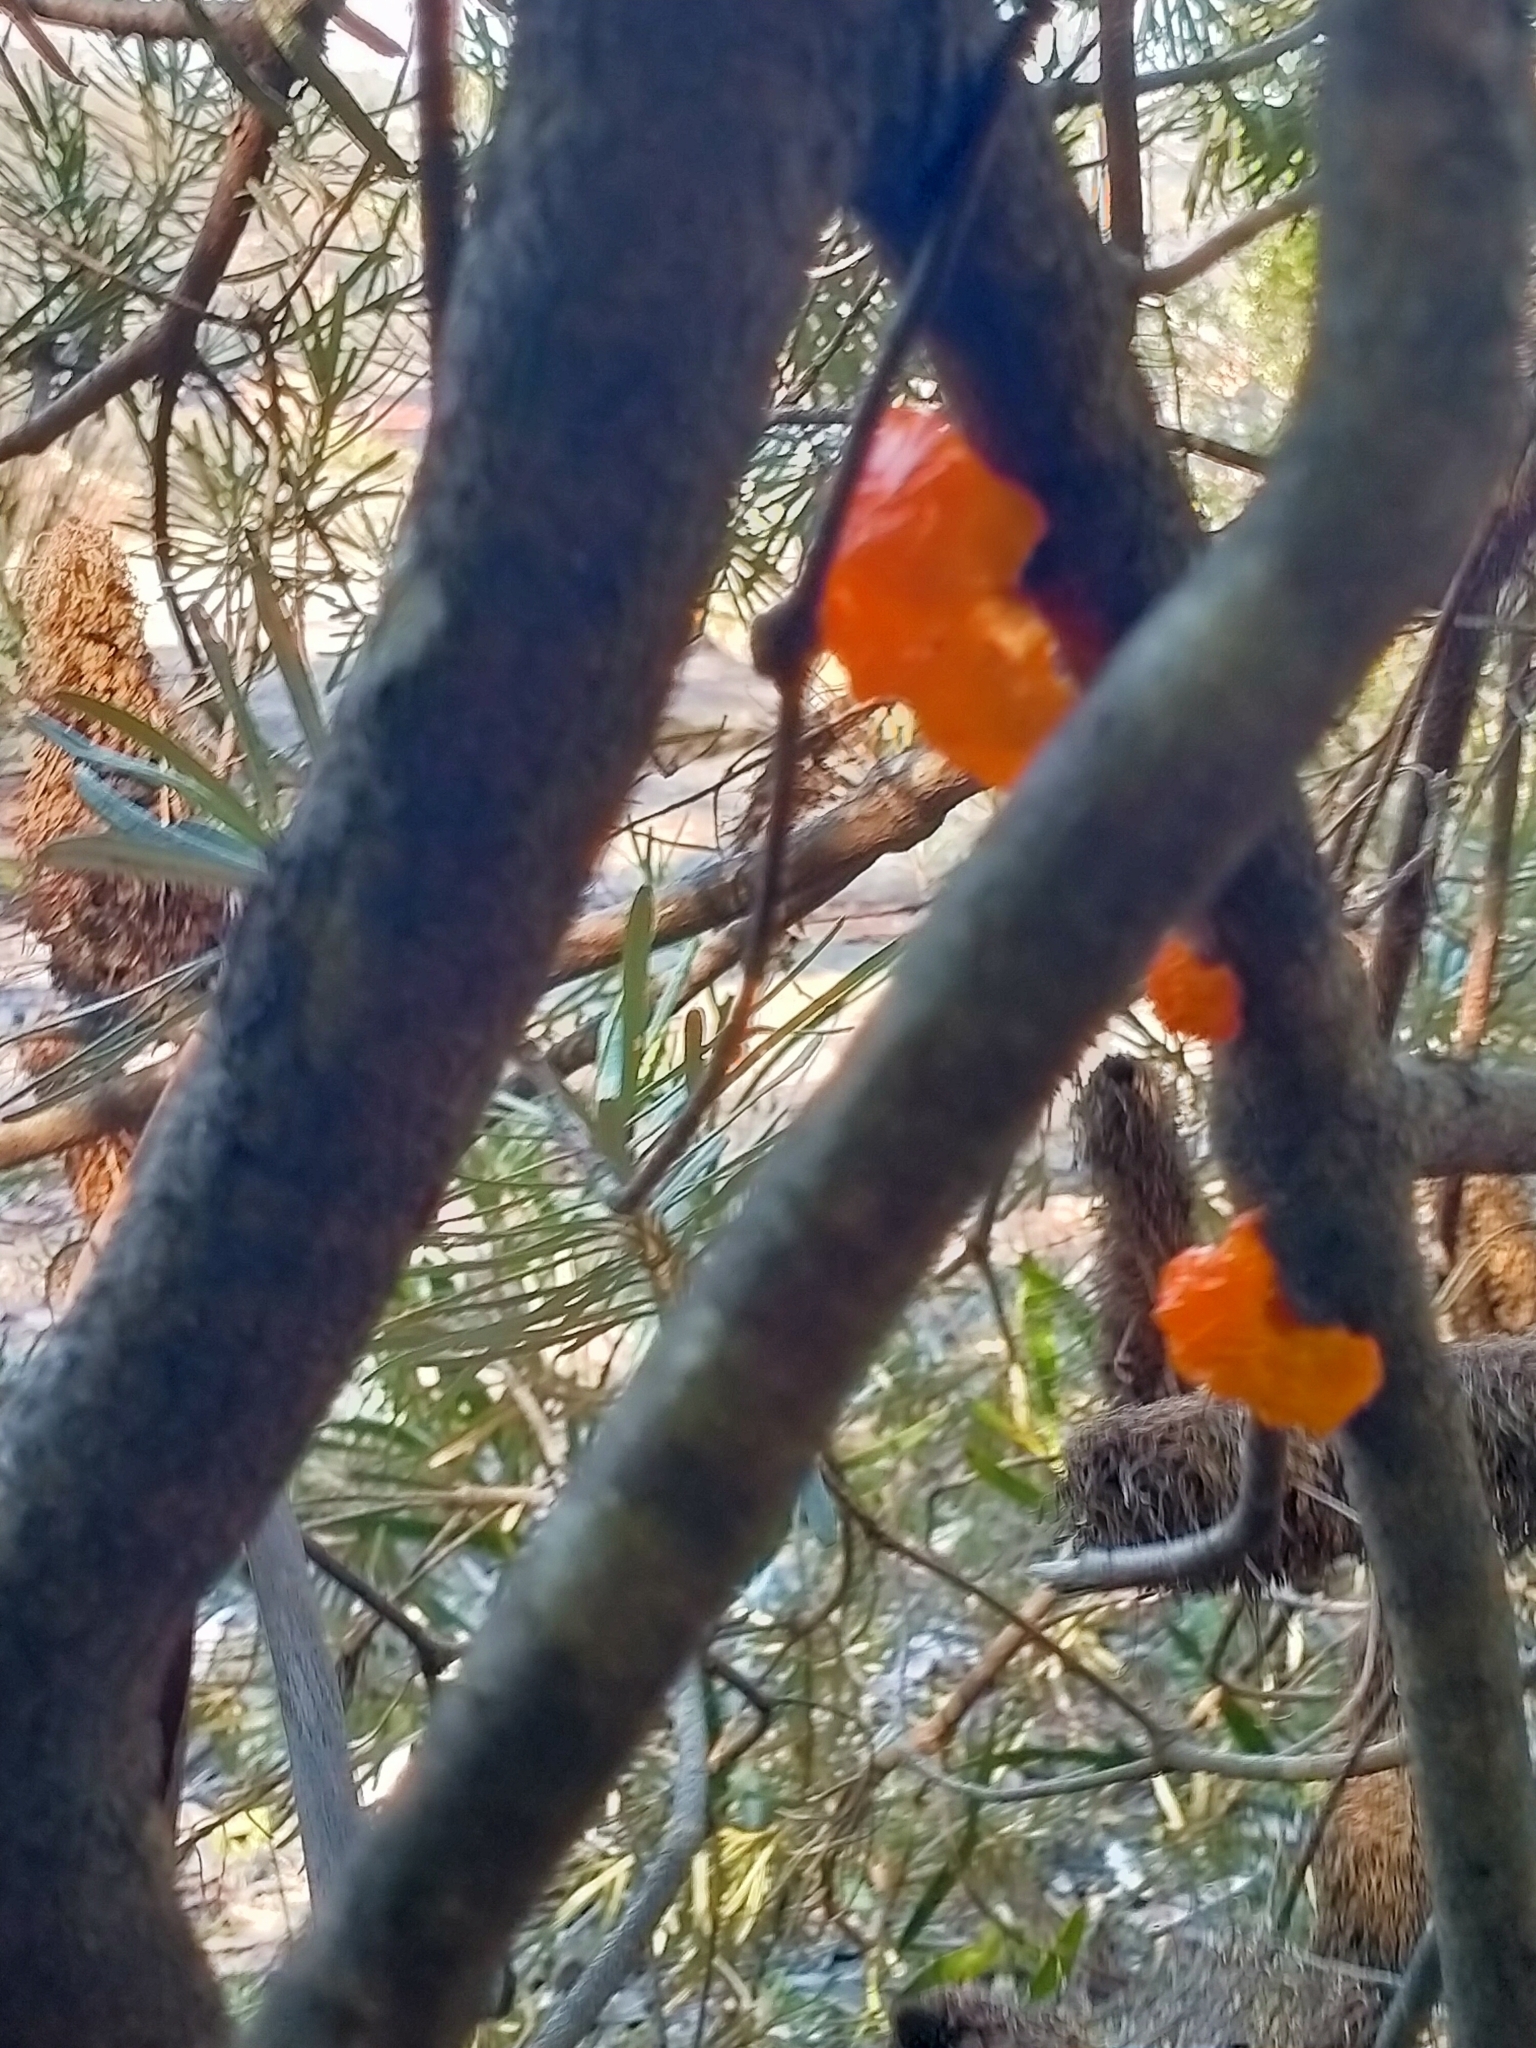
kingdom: Fungi
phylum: Basidiomycota
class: Tremellomycetes
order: Tremellales
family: Tremellaceae
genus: Tremella
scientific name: Tremella mesenterica
